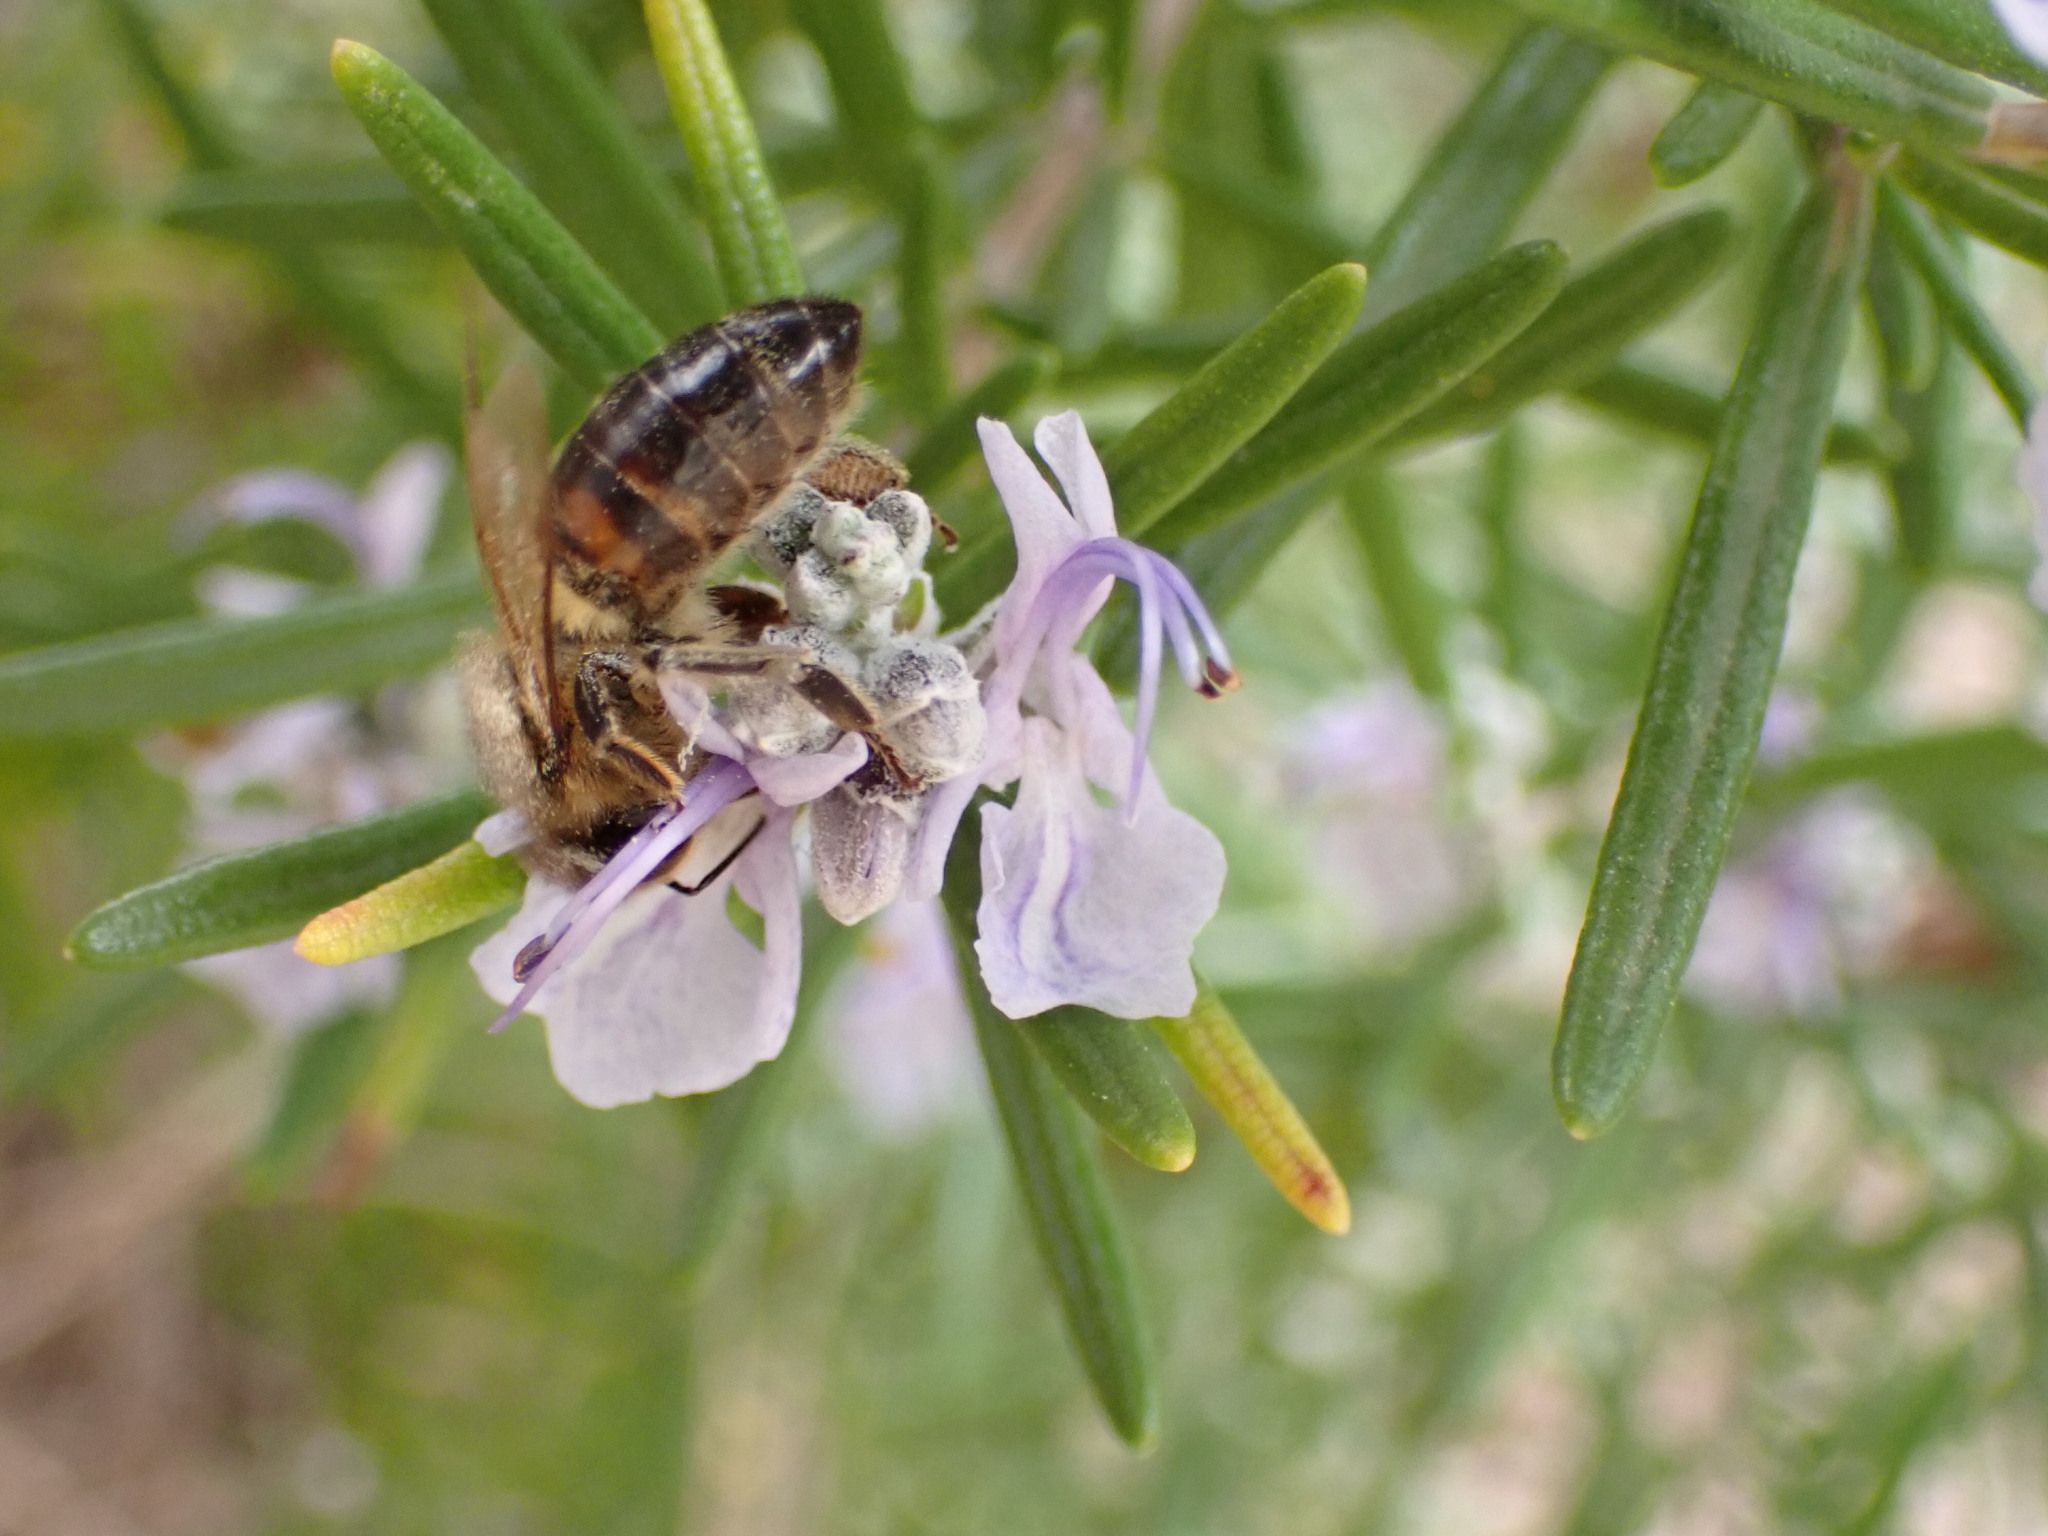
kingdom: Animalia
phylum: Arthropoda
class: Insecta
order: Hymenoptera
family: Apidae
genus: Apis
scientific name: Apis mellifera
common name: Honey bee
